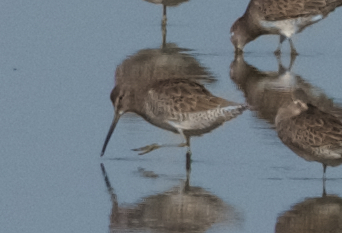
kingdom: Animalia
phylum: Chordata
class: Aves
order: Charadriiformes
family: Scolopacidae
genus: Limnodromus
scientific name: Limnodromus scolopaceus
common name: Long-billed dowitcher
